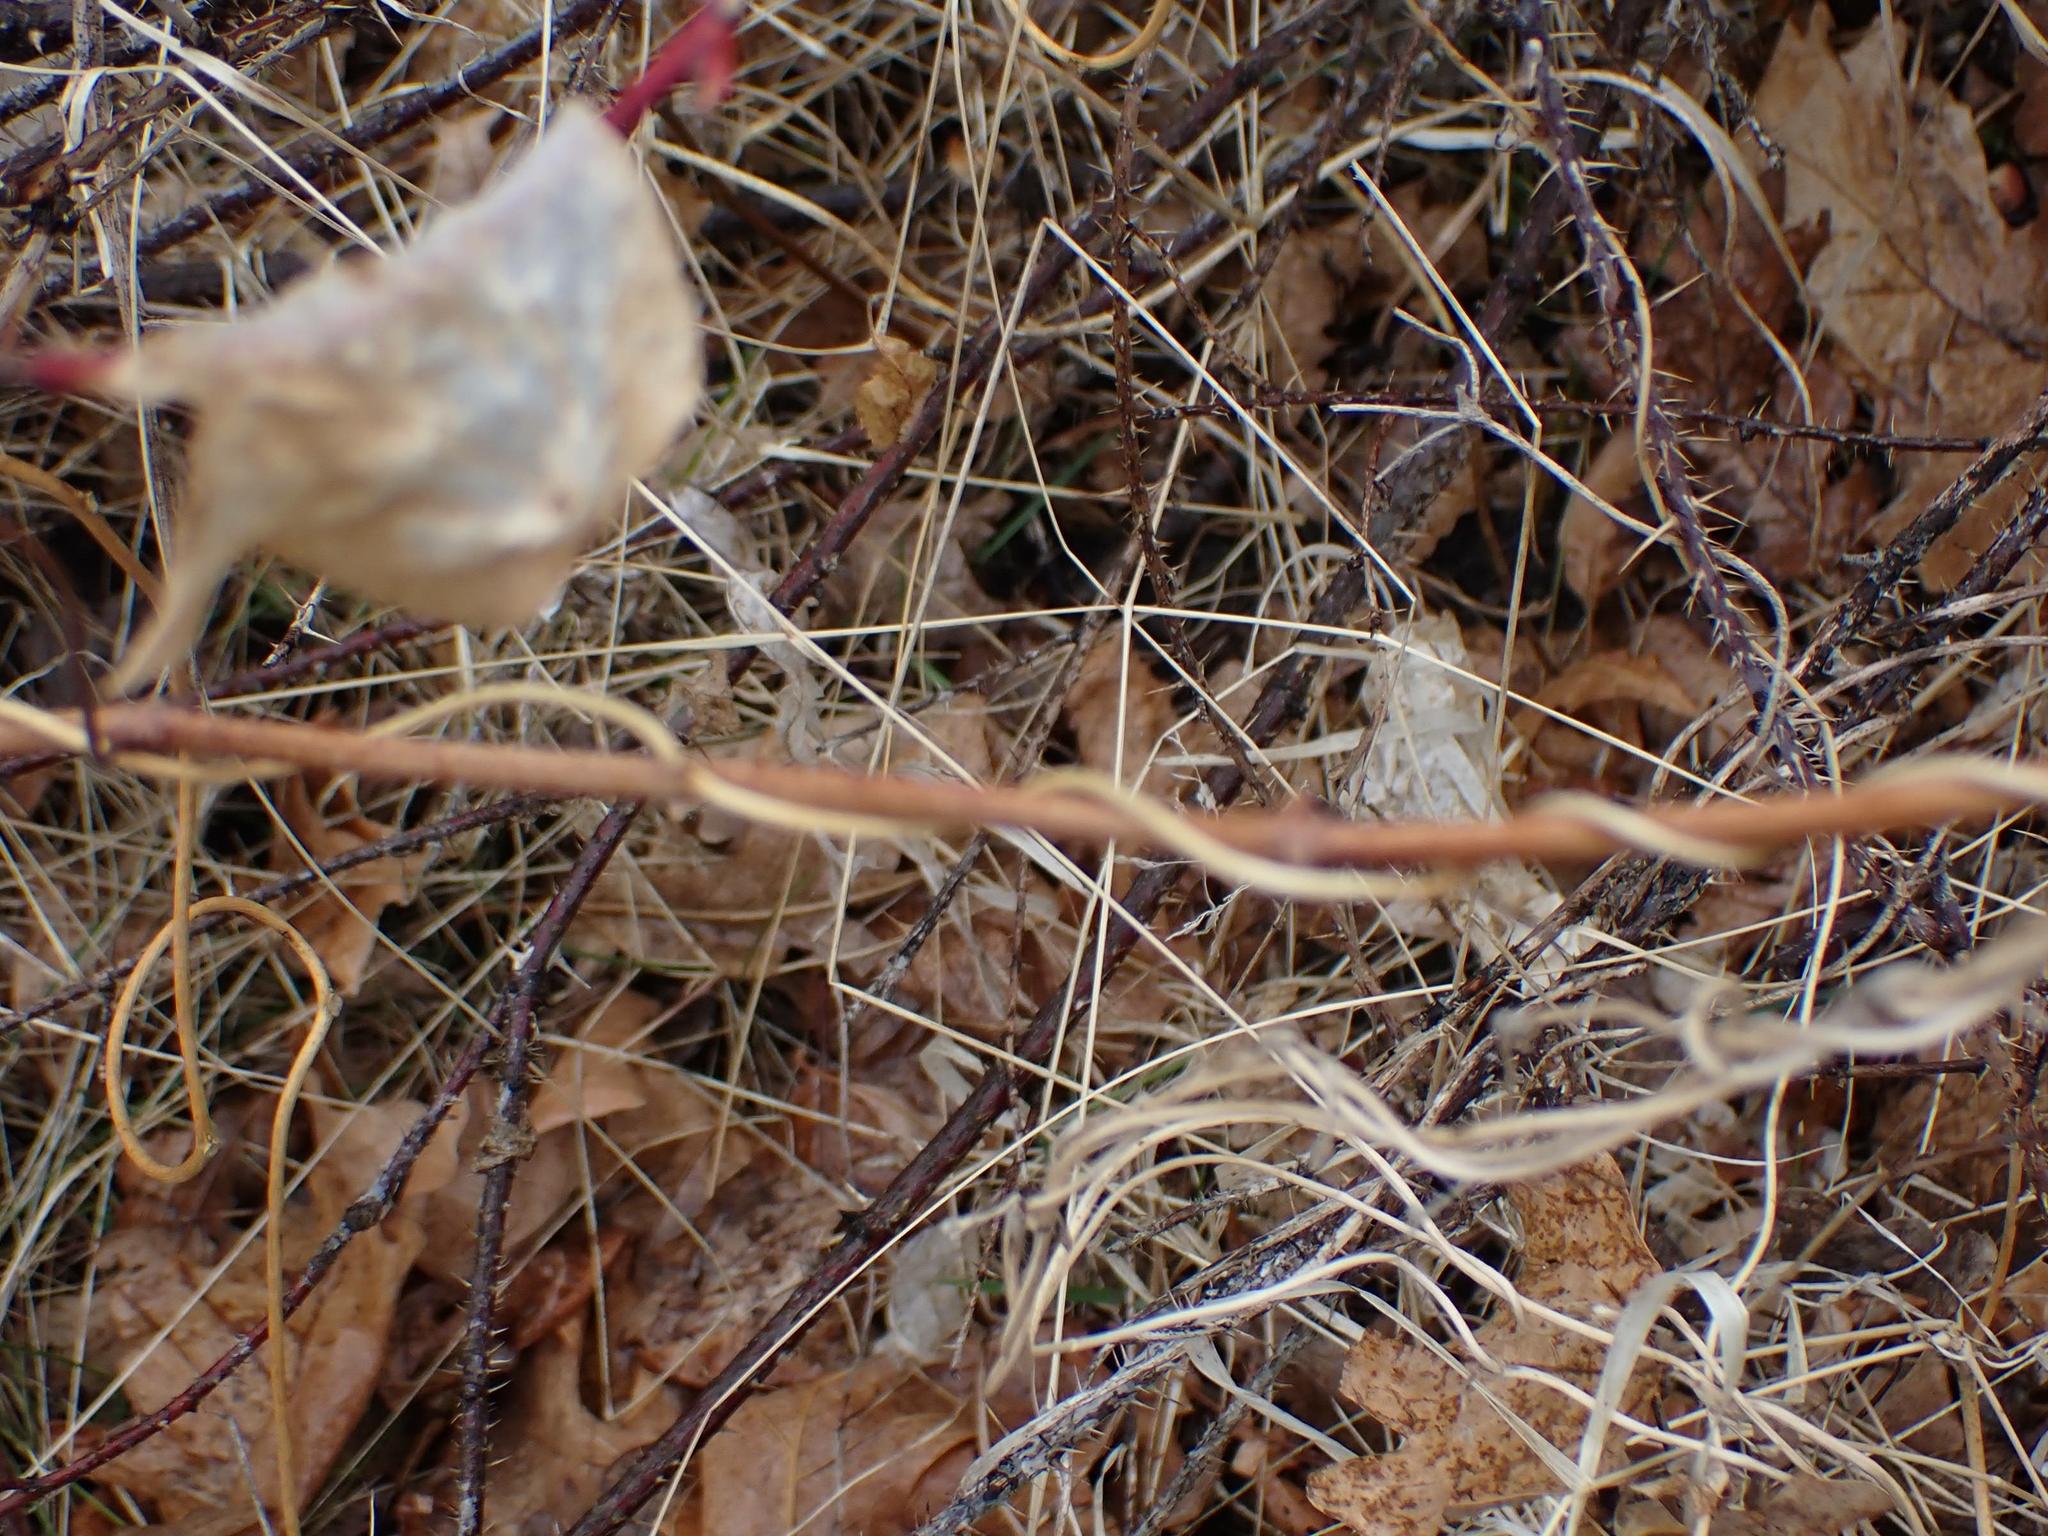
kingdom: Plantae
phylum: Tracheophyta
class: Magnoliopsida
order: Cucurbitales
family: Cucurbitaceae
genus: Echinocystis
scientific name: Echinocystis lobata
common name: Wild cucumber
